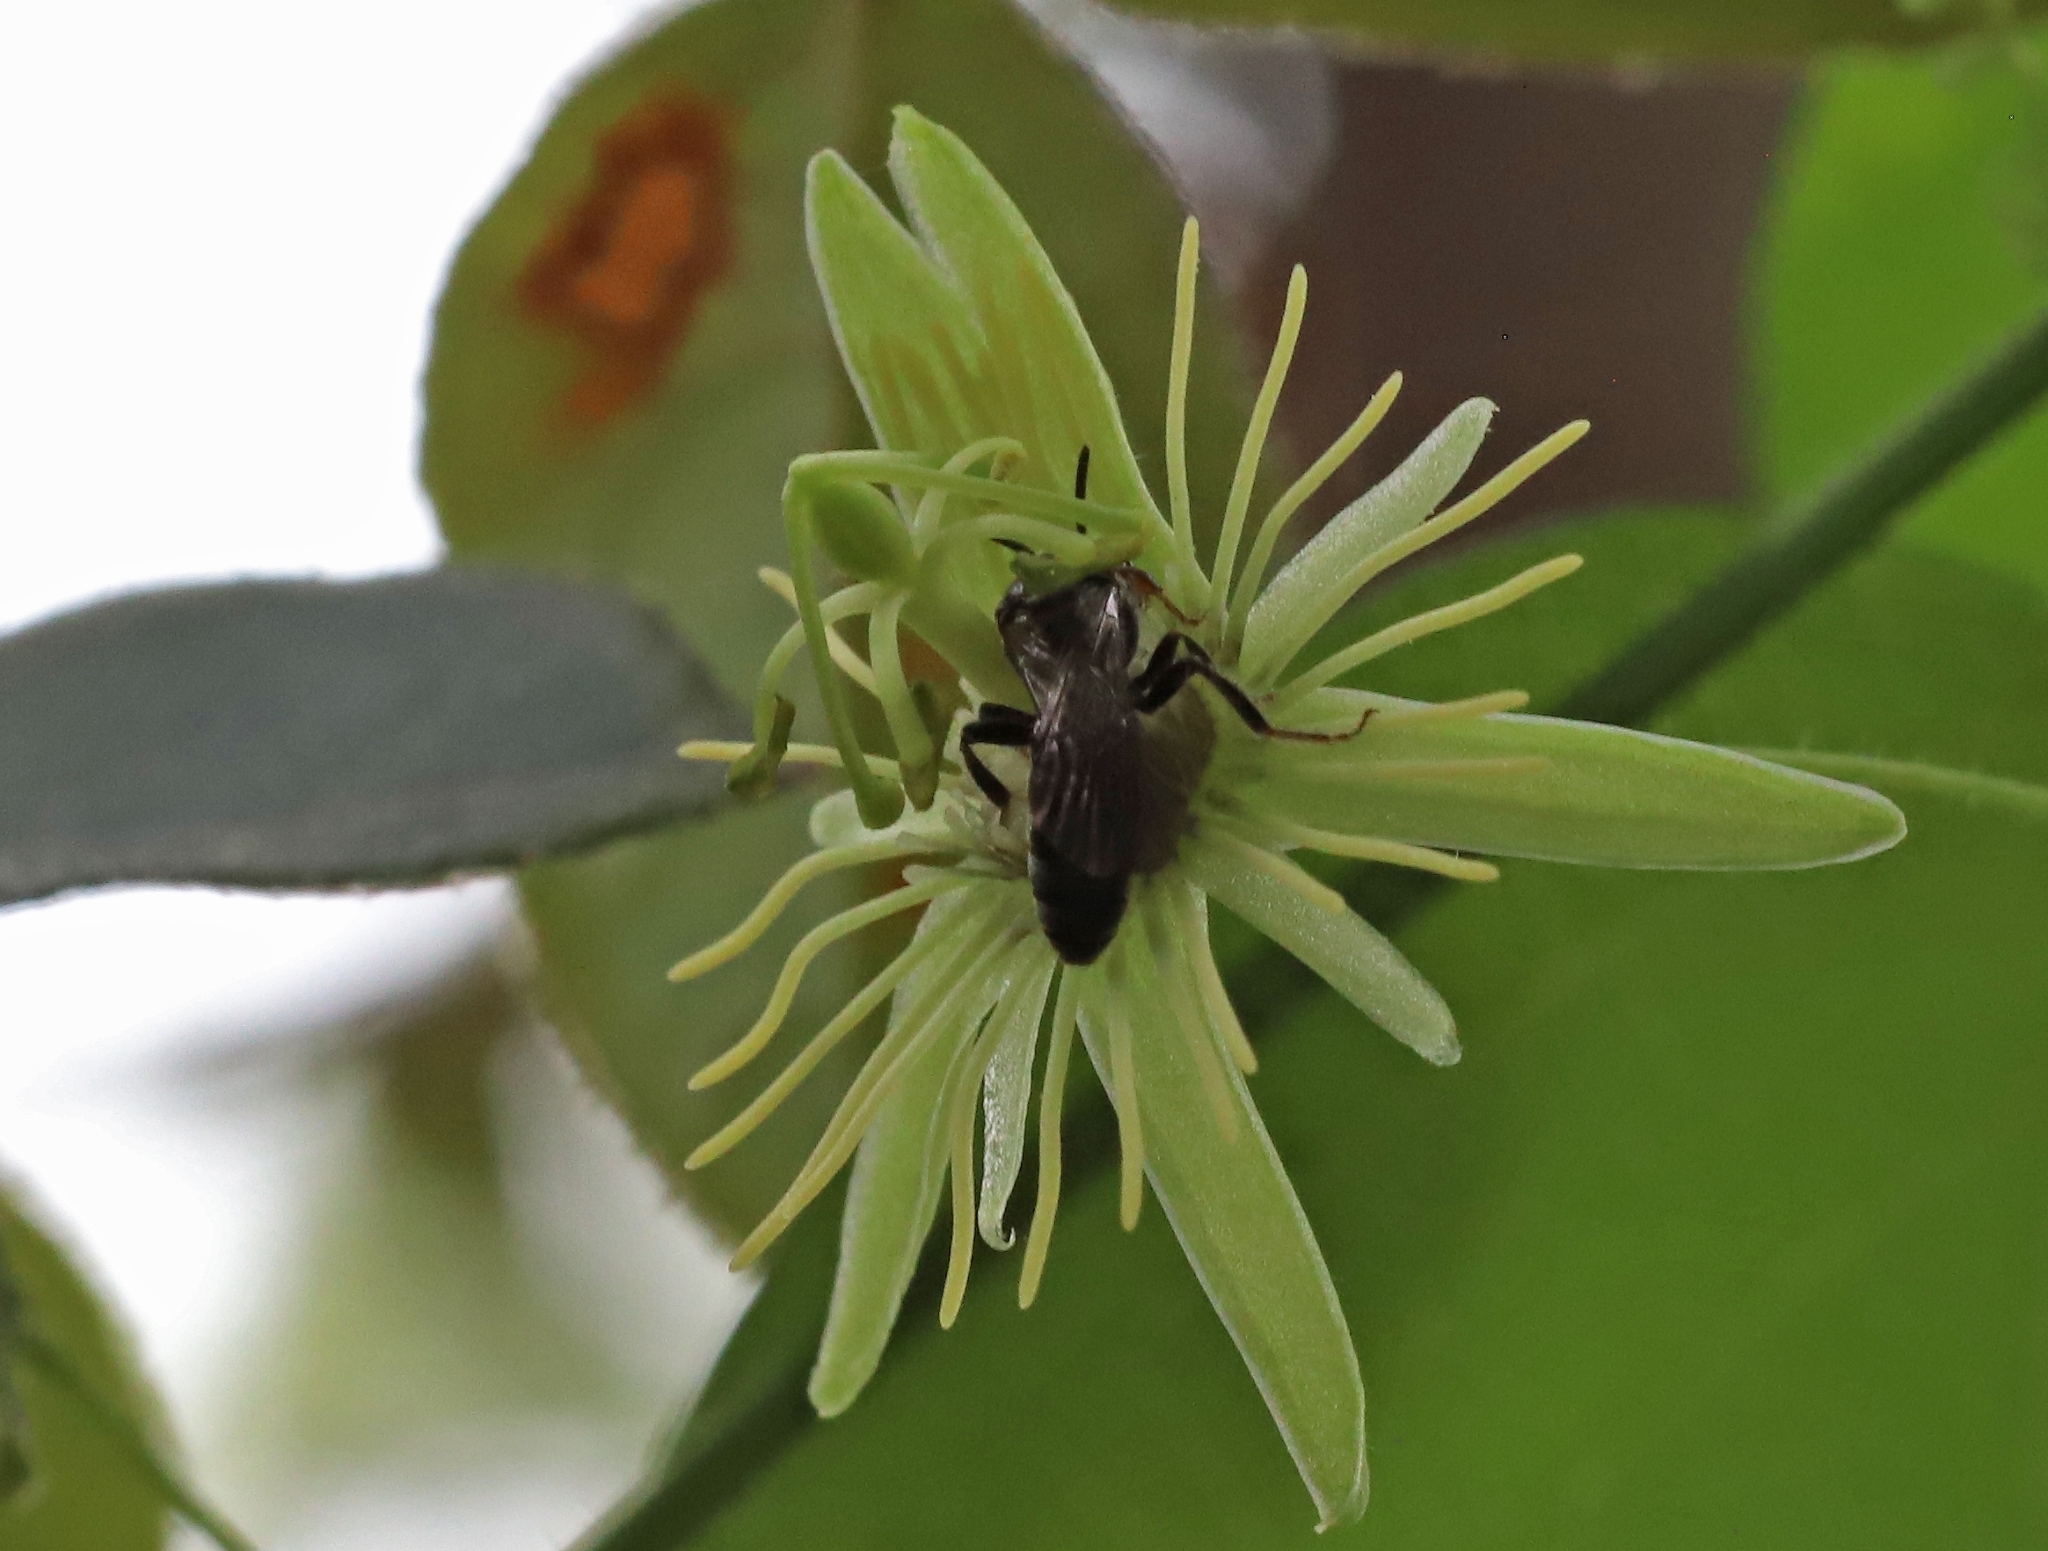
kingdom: Animalia
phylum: Arthropoda
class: Insecta
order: Hymenoptera
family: Andrenidae
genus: Protandrena
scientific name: Protandrena
